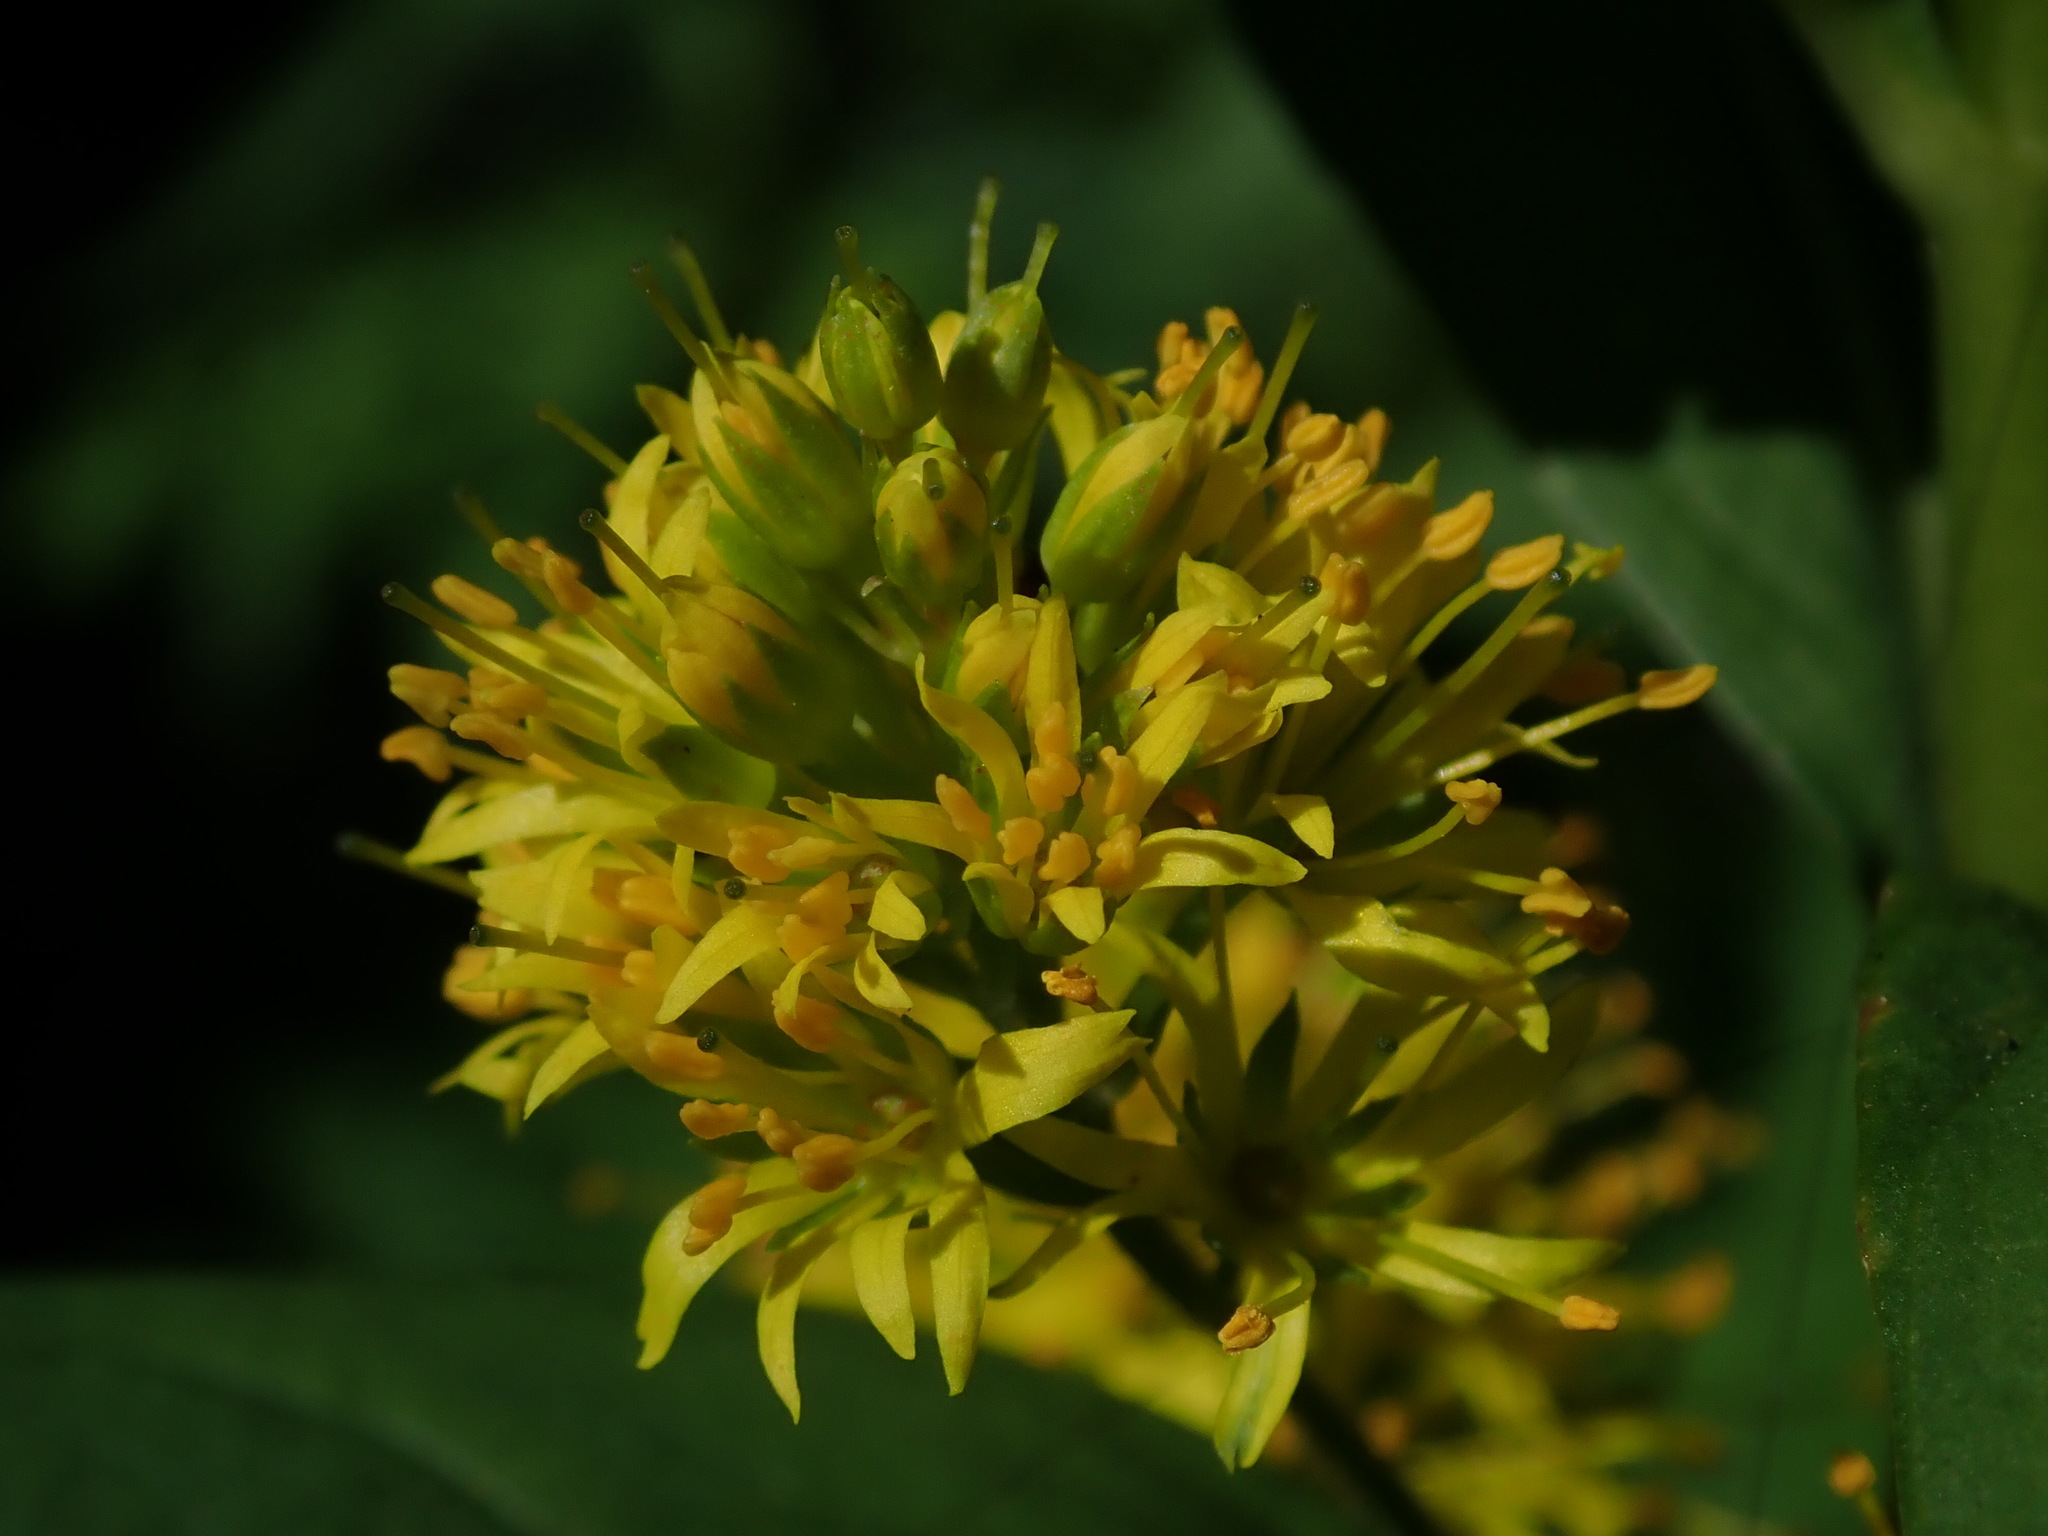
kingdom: Plantae
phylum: Tracheophyta
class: Magnoliopsida
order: Ericales
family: Primulaceae
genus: Lysimachia
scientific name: Lysimachia thyrsiflora
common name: Tufted loosestrife
